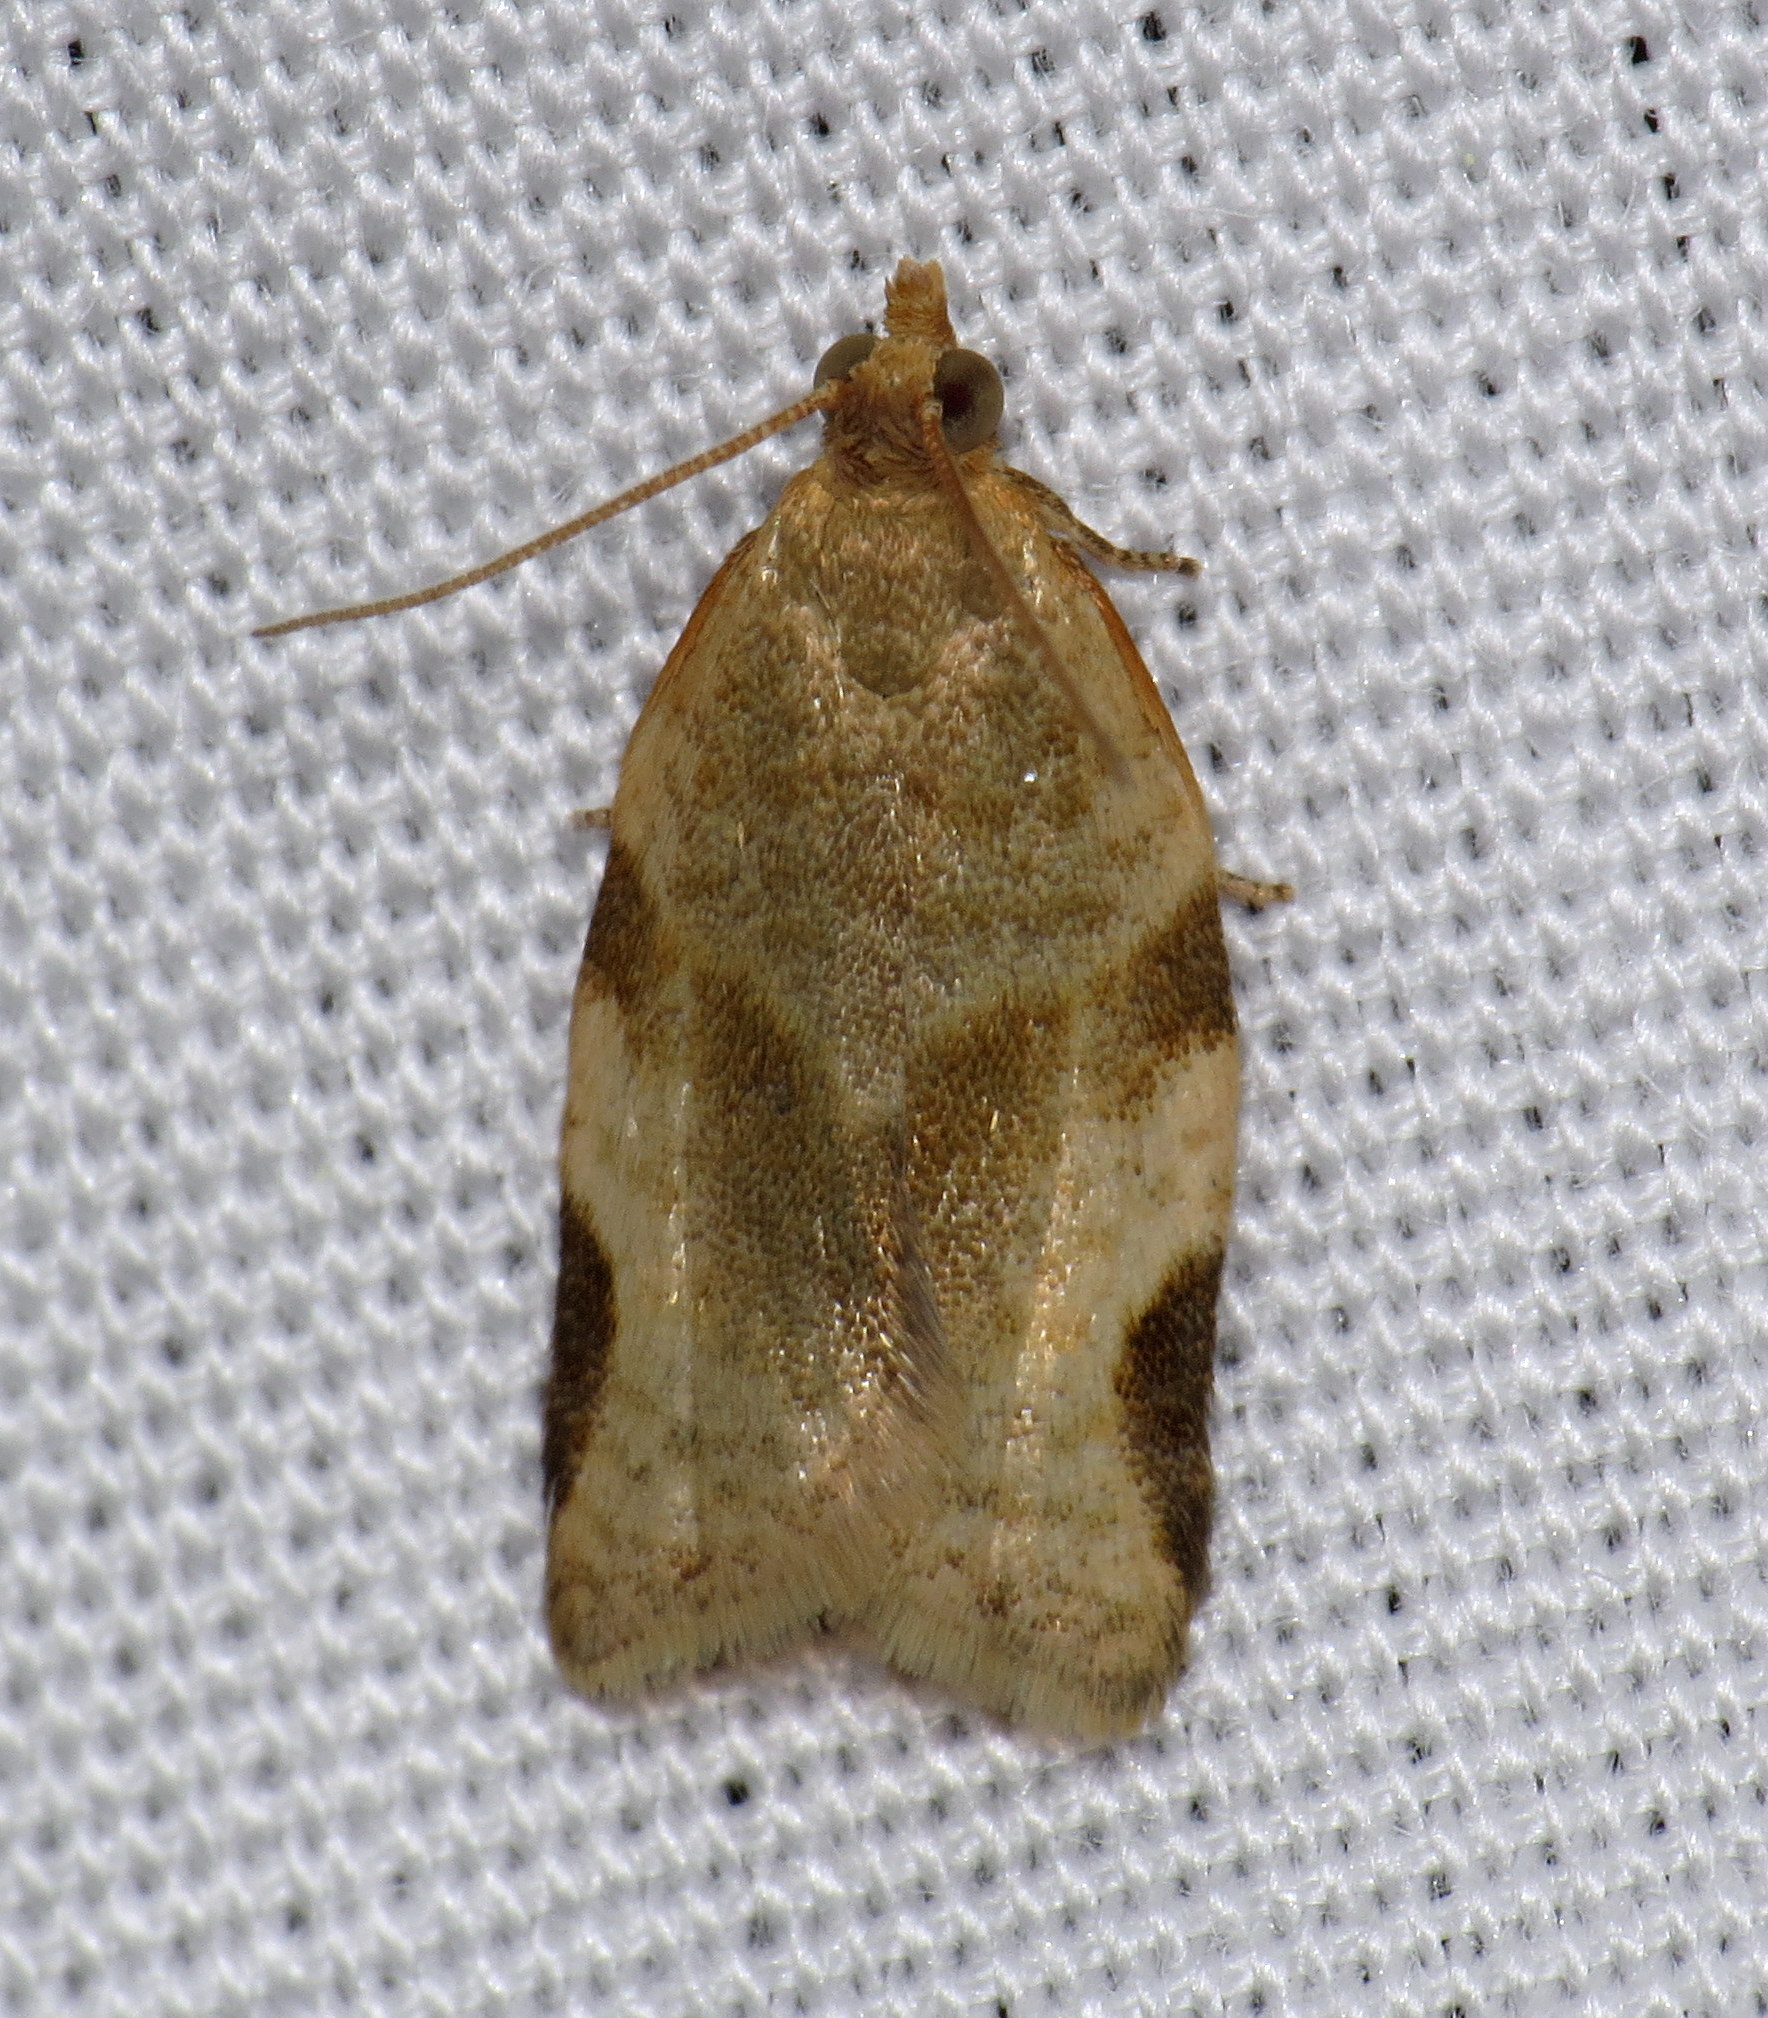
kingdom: Animalia
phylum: Arthropoda
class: Insecta
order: Lepidoptera
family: Tortricidae
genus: Clepsis
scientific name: Clepsis virescana
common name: Greenish apple moth
